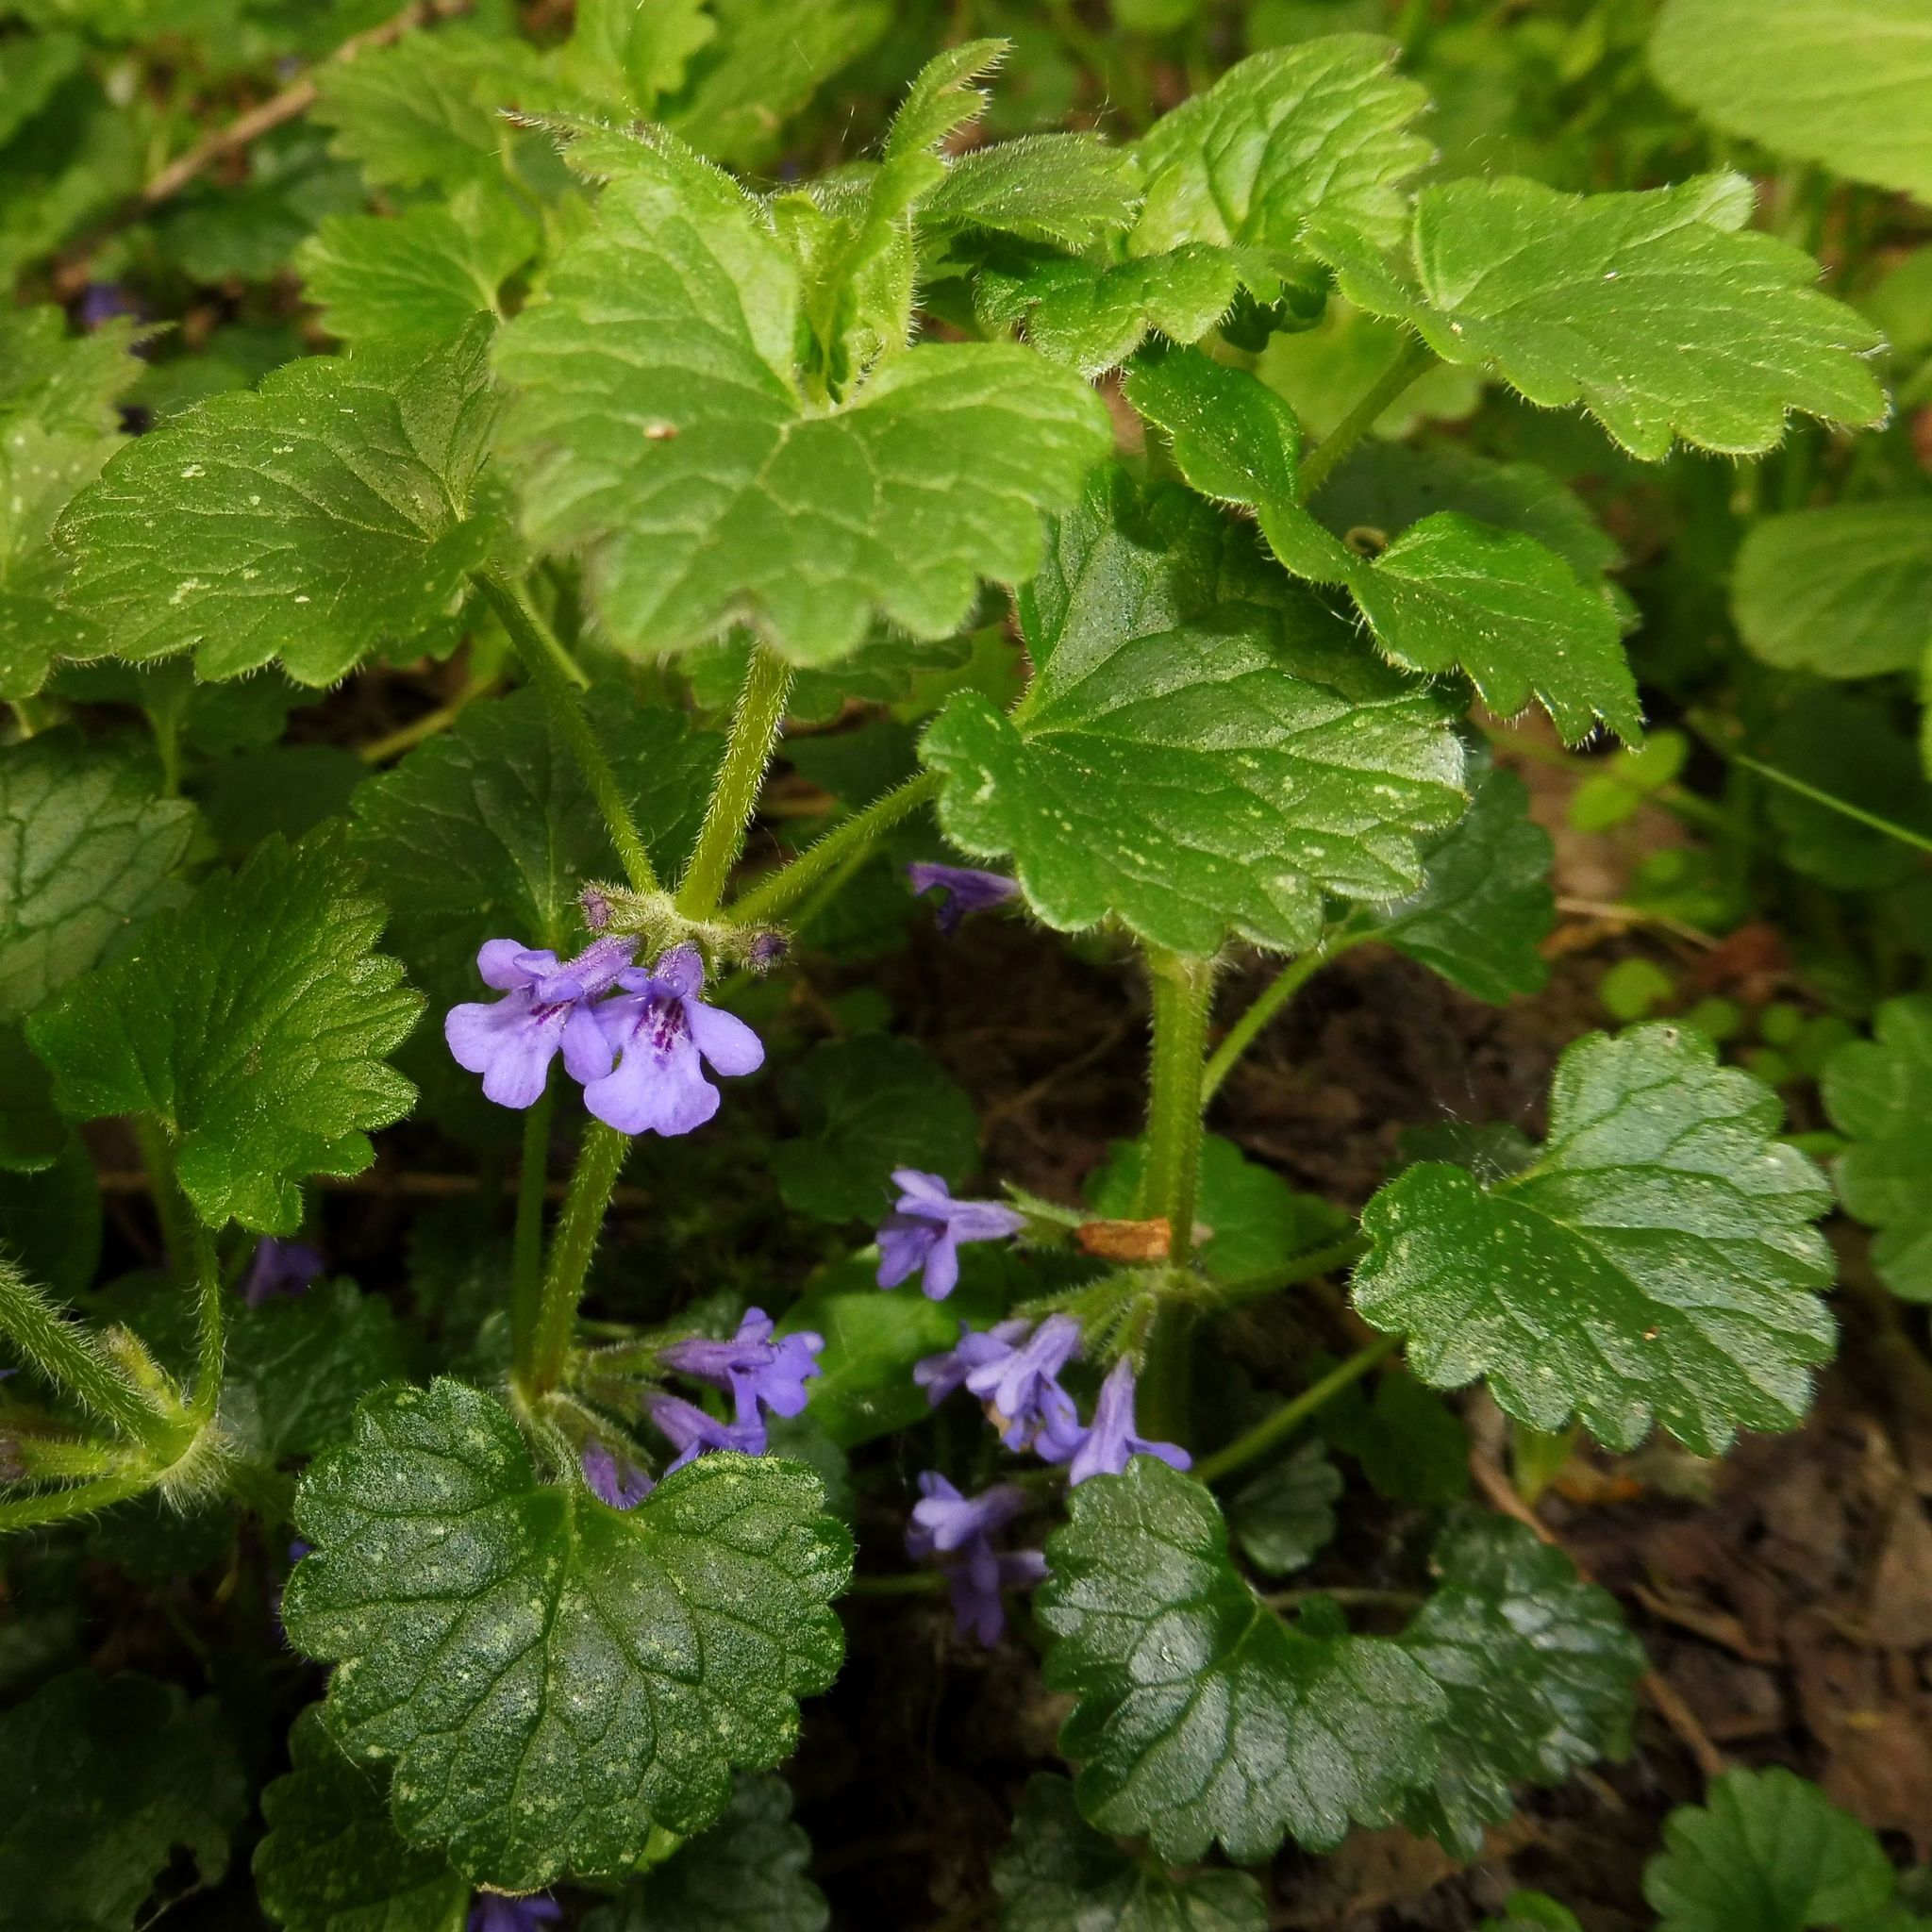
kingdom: Plantae
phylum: Tracheophyta
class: Magnoliopsida
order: Lamiales
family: Lamiaceae
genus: Glechoma
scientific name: Glechoma hederacea
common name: Ground ivy
